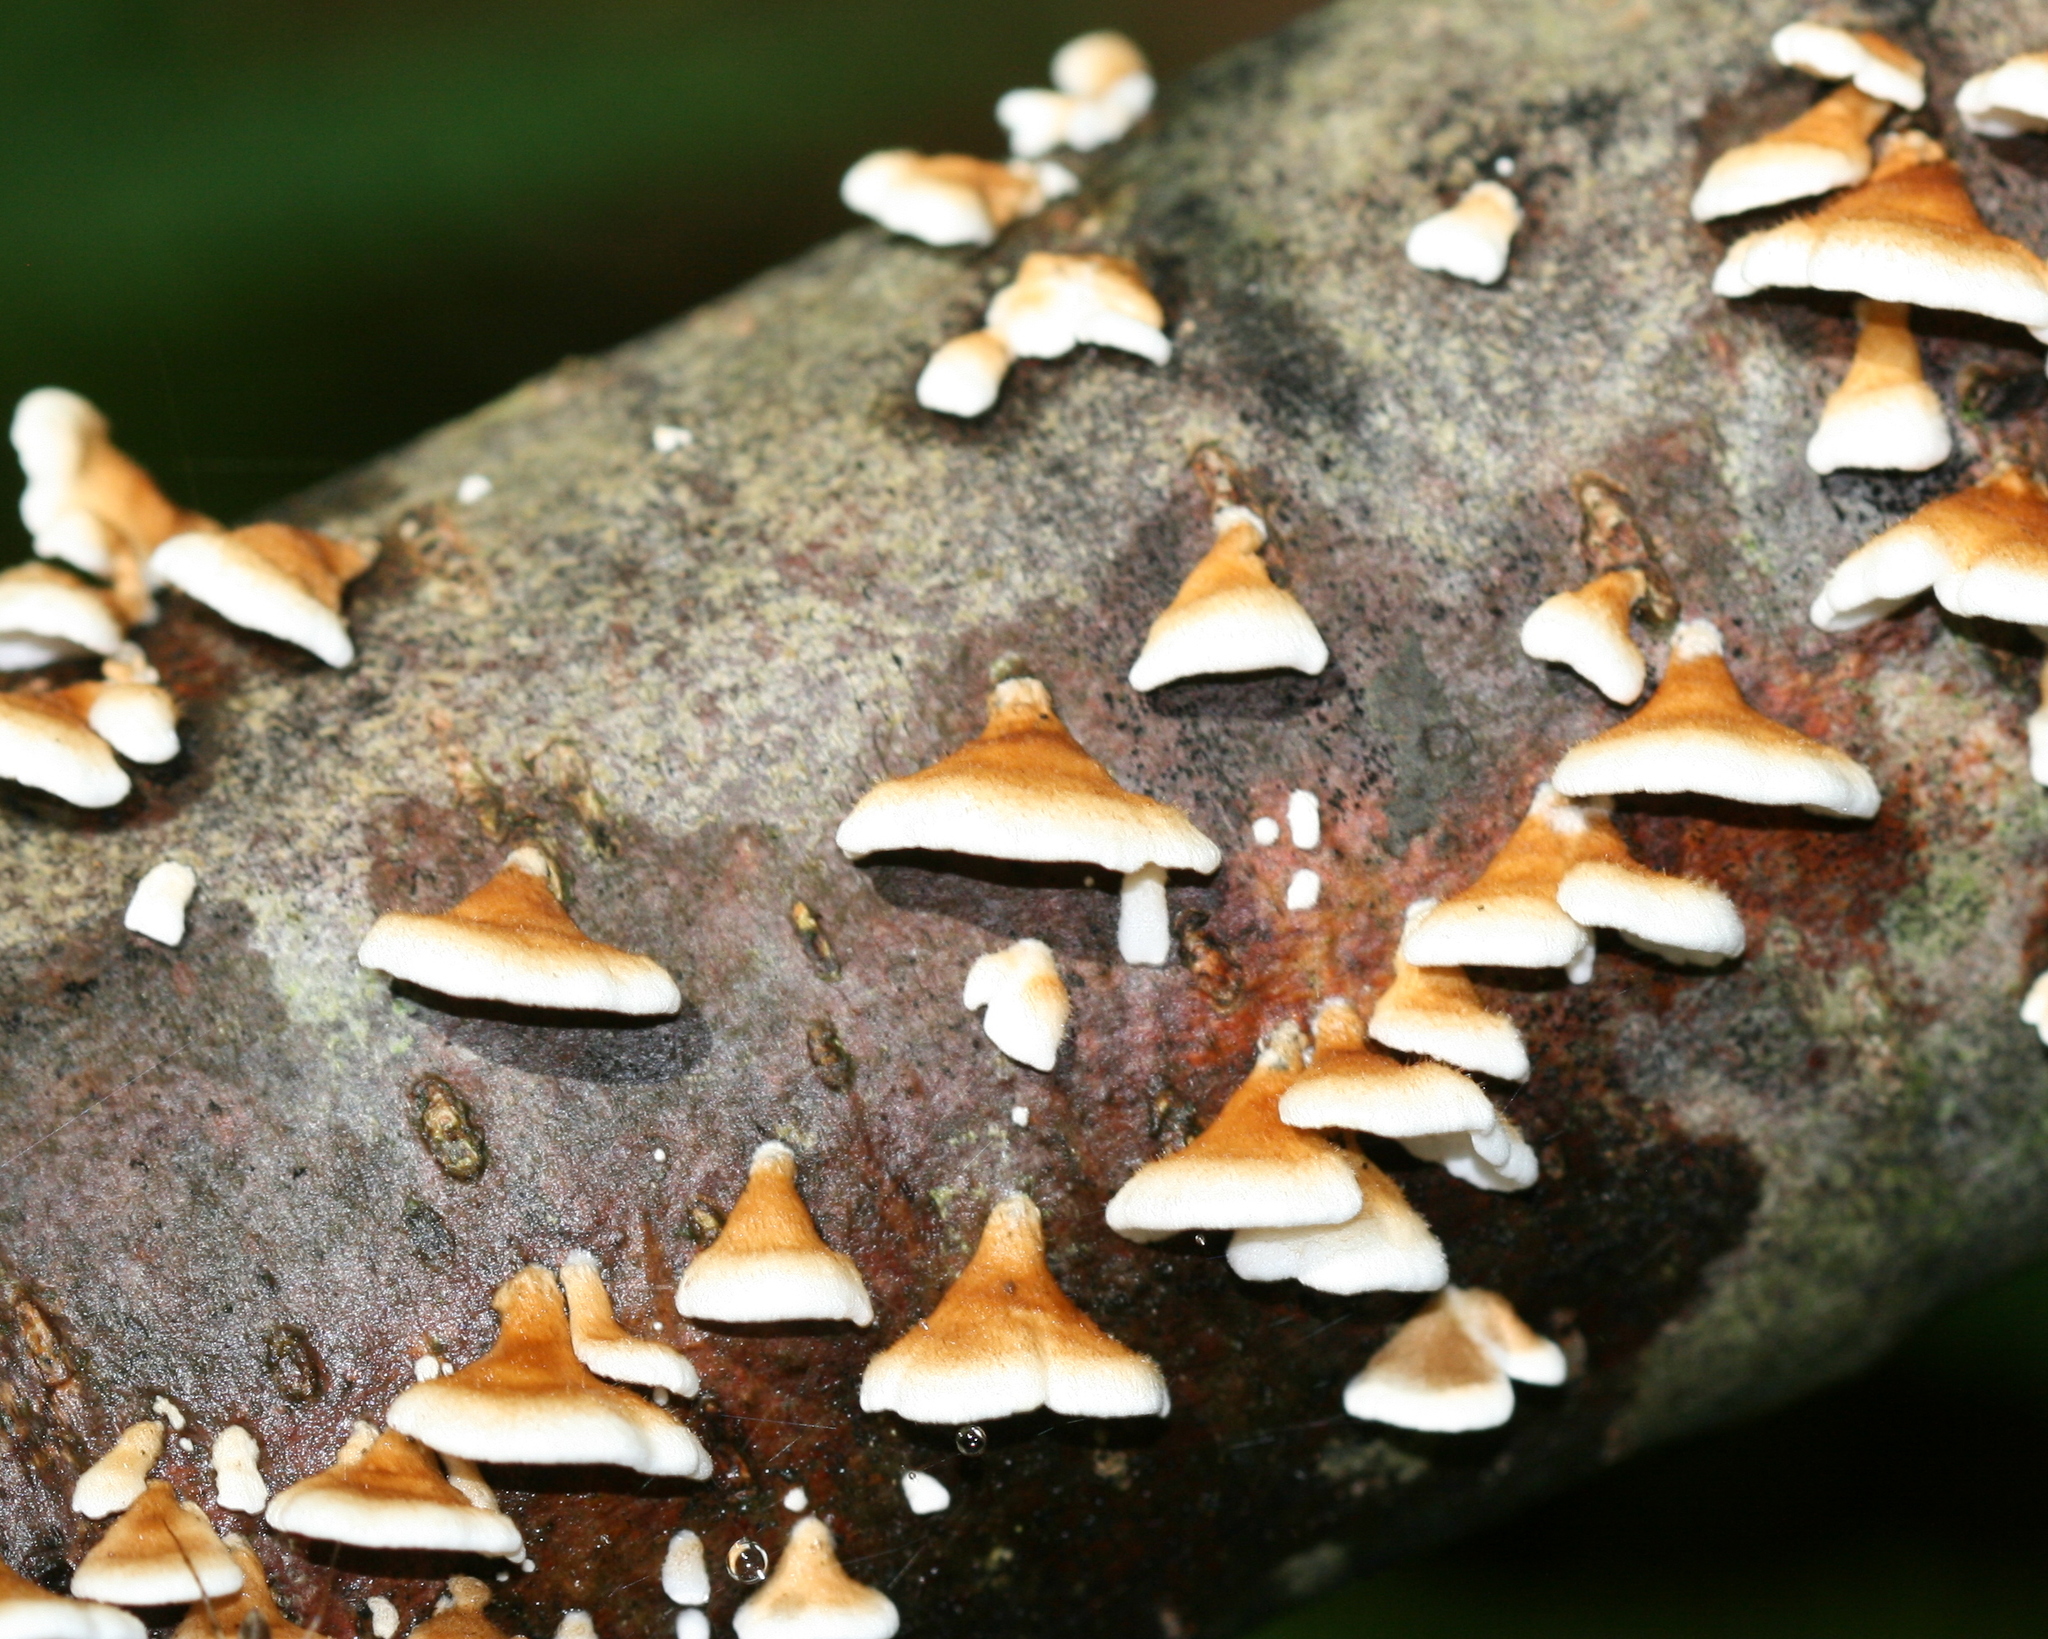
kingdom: Fungi
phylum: Basidiomycota
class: Agaricomycetes
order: Amylocorticiales
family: Amylocorticiaceae
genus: Plicaturopsis
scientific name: Plicaturopsis crispa
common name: Crimped gill
